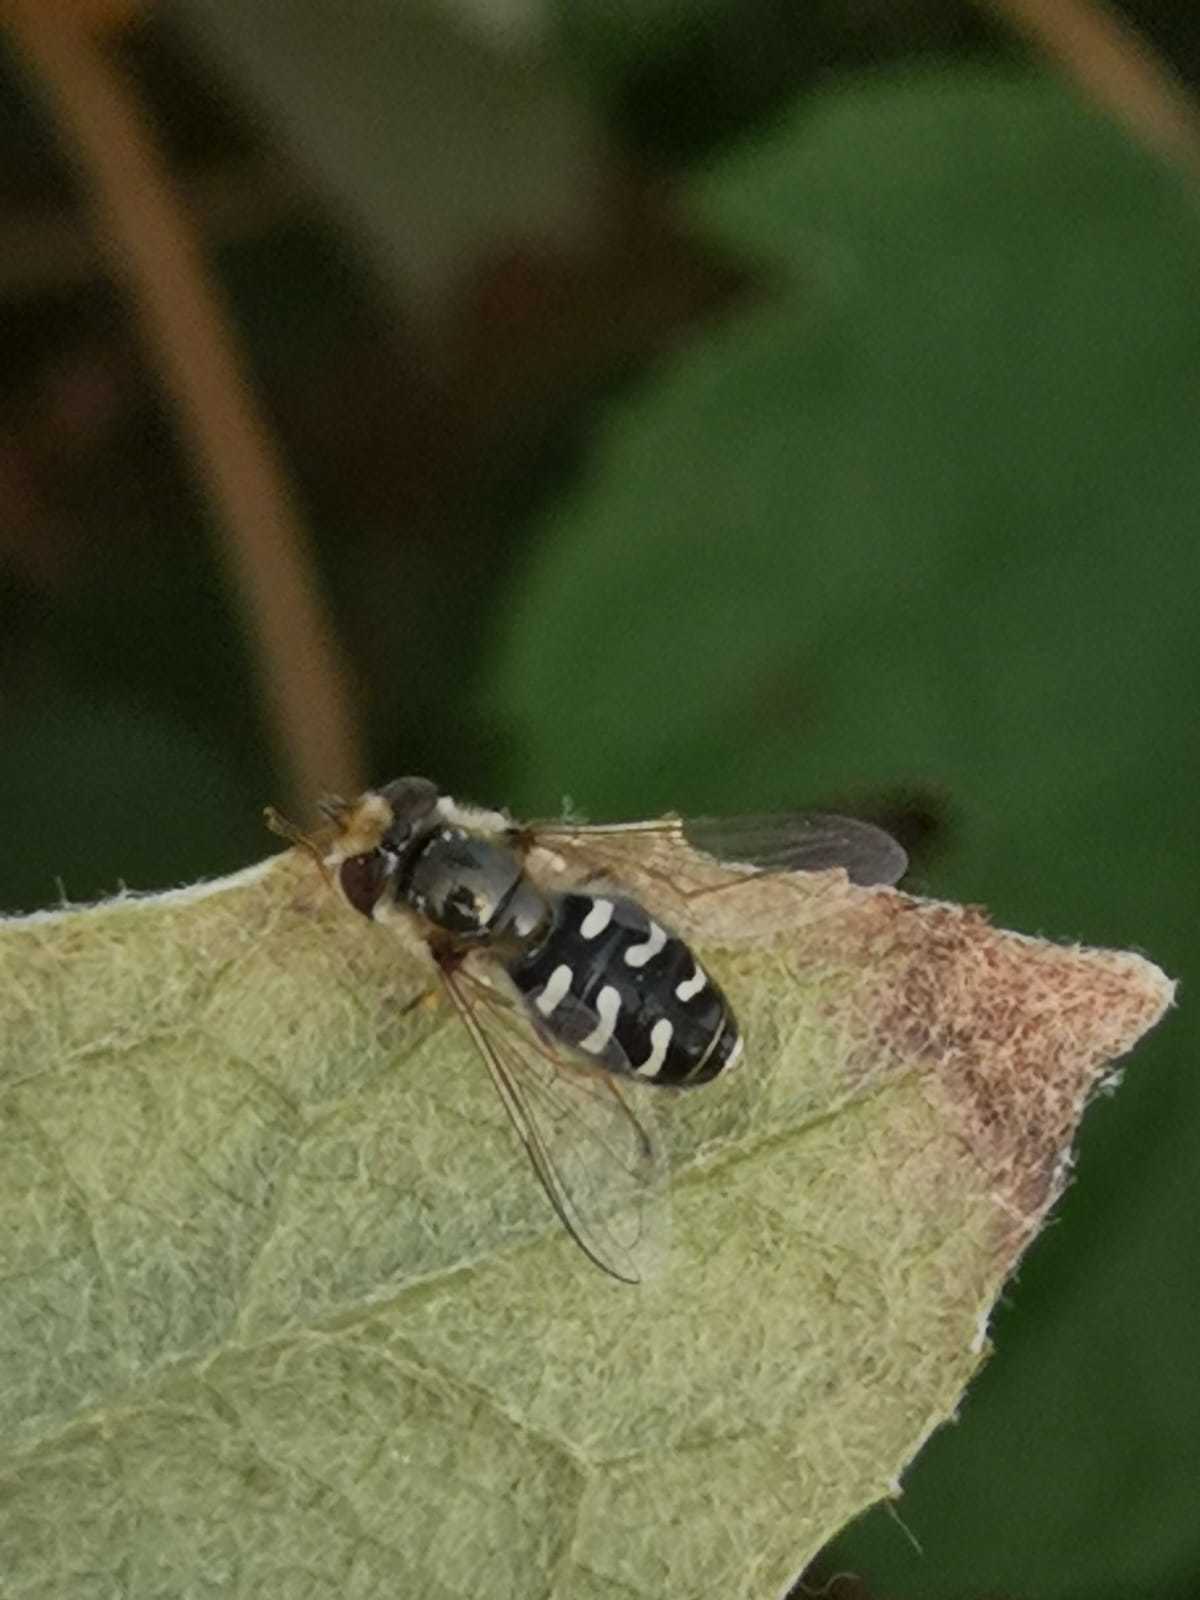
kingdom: Animalia
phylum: Arthropoda
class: Insecta
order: Diptera
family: Syrphidae
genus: Scaeva
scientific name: Scaeva pyrastri
